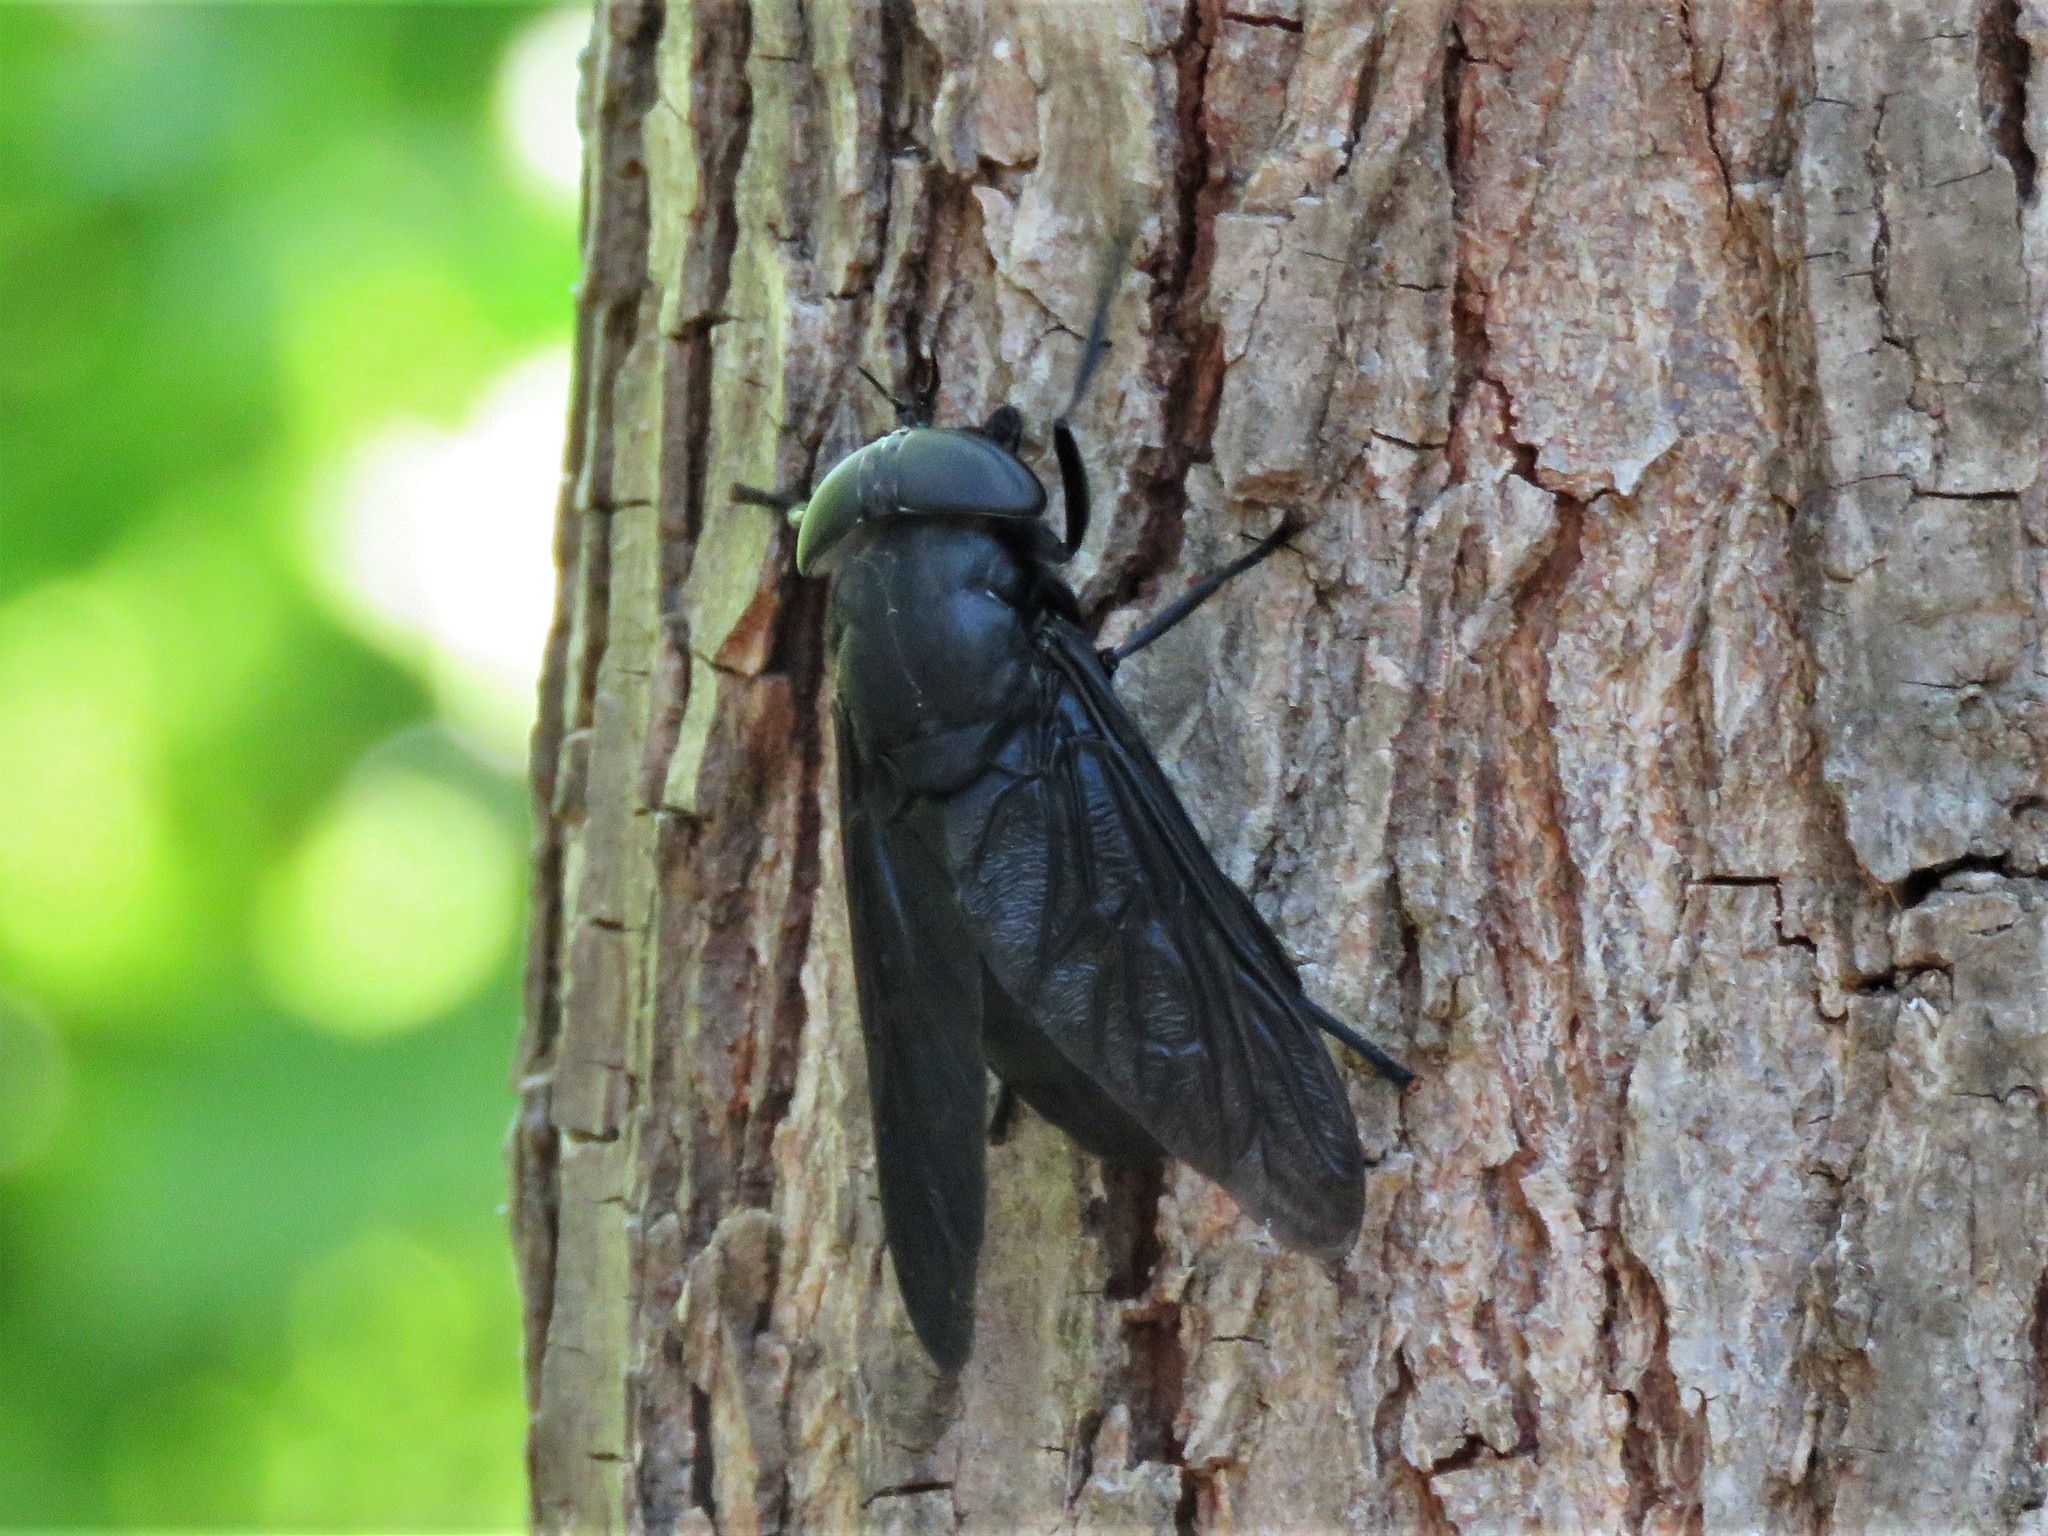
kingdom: Animalia
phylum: Arthropoda
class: Insecta
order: Diptera
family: Tabanidae
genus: Tabanus
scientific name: Tabanus atratus
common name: Black horse fly
